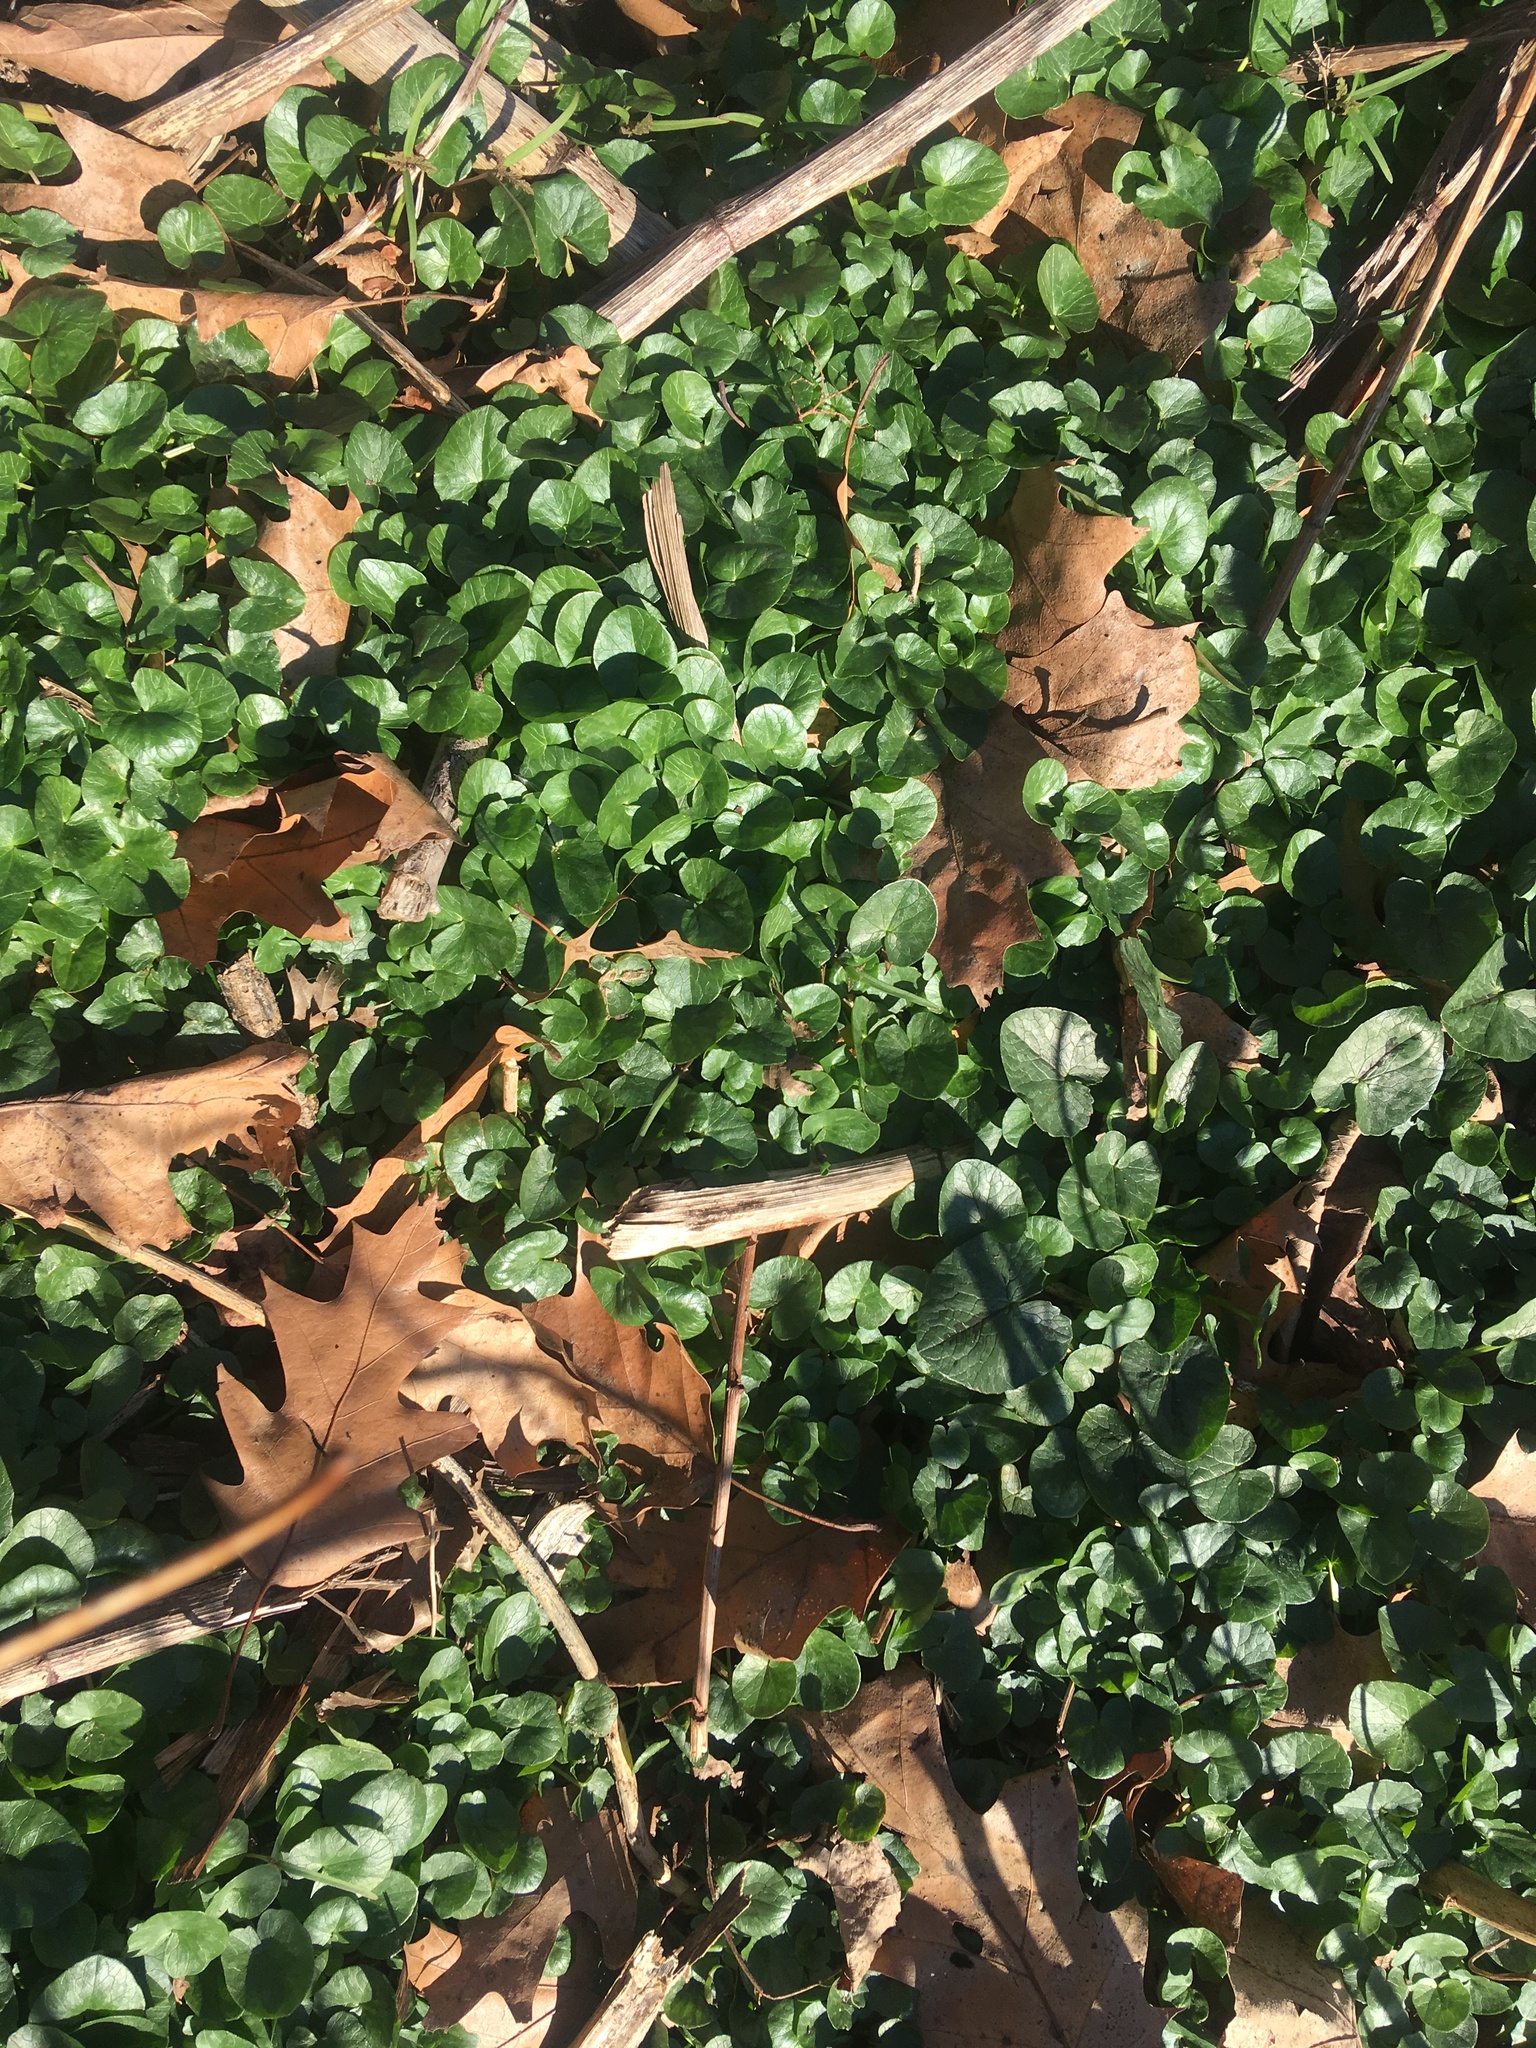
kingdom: Plantae
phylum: Tracheophyta
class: Magnoliopsida
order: Ranunculales
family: Ranunculaceae
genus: Ficaria
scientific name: Ficaria verna
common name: Lesser celandine
